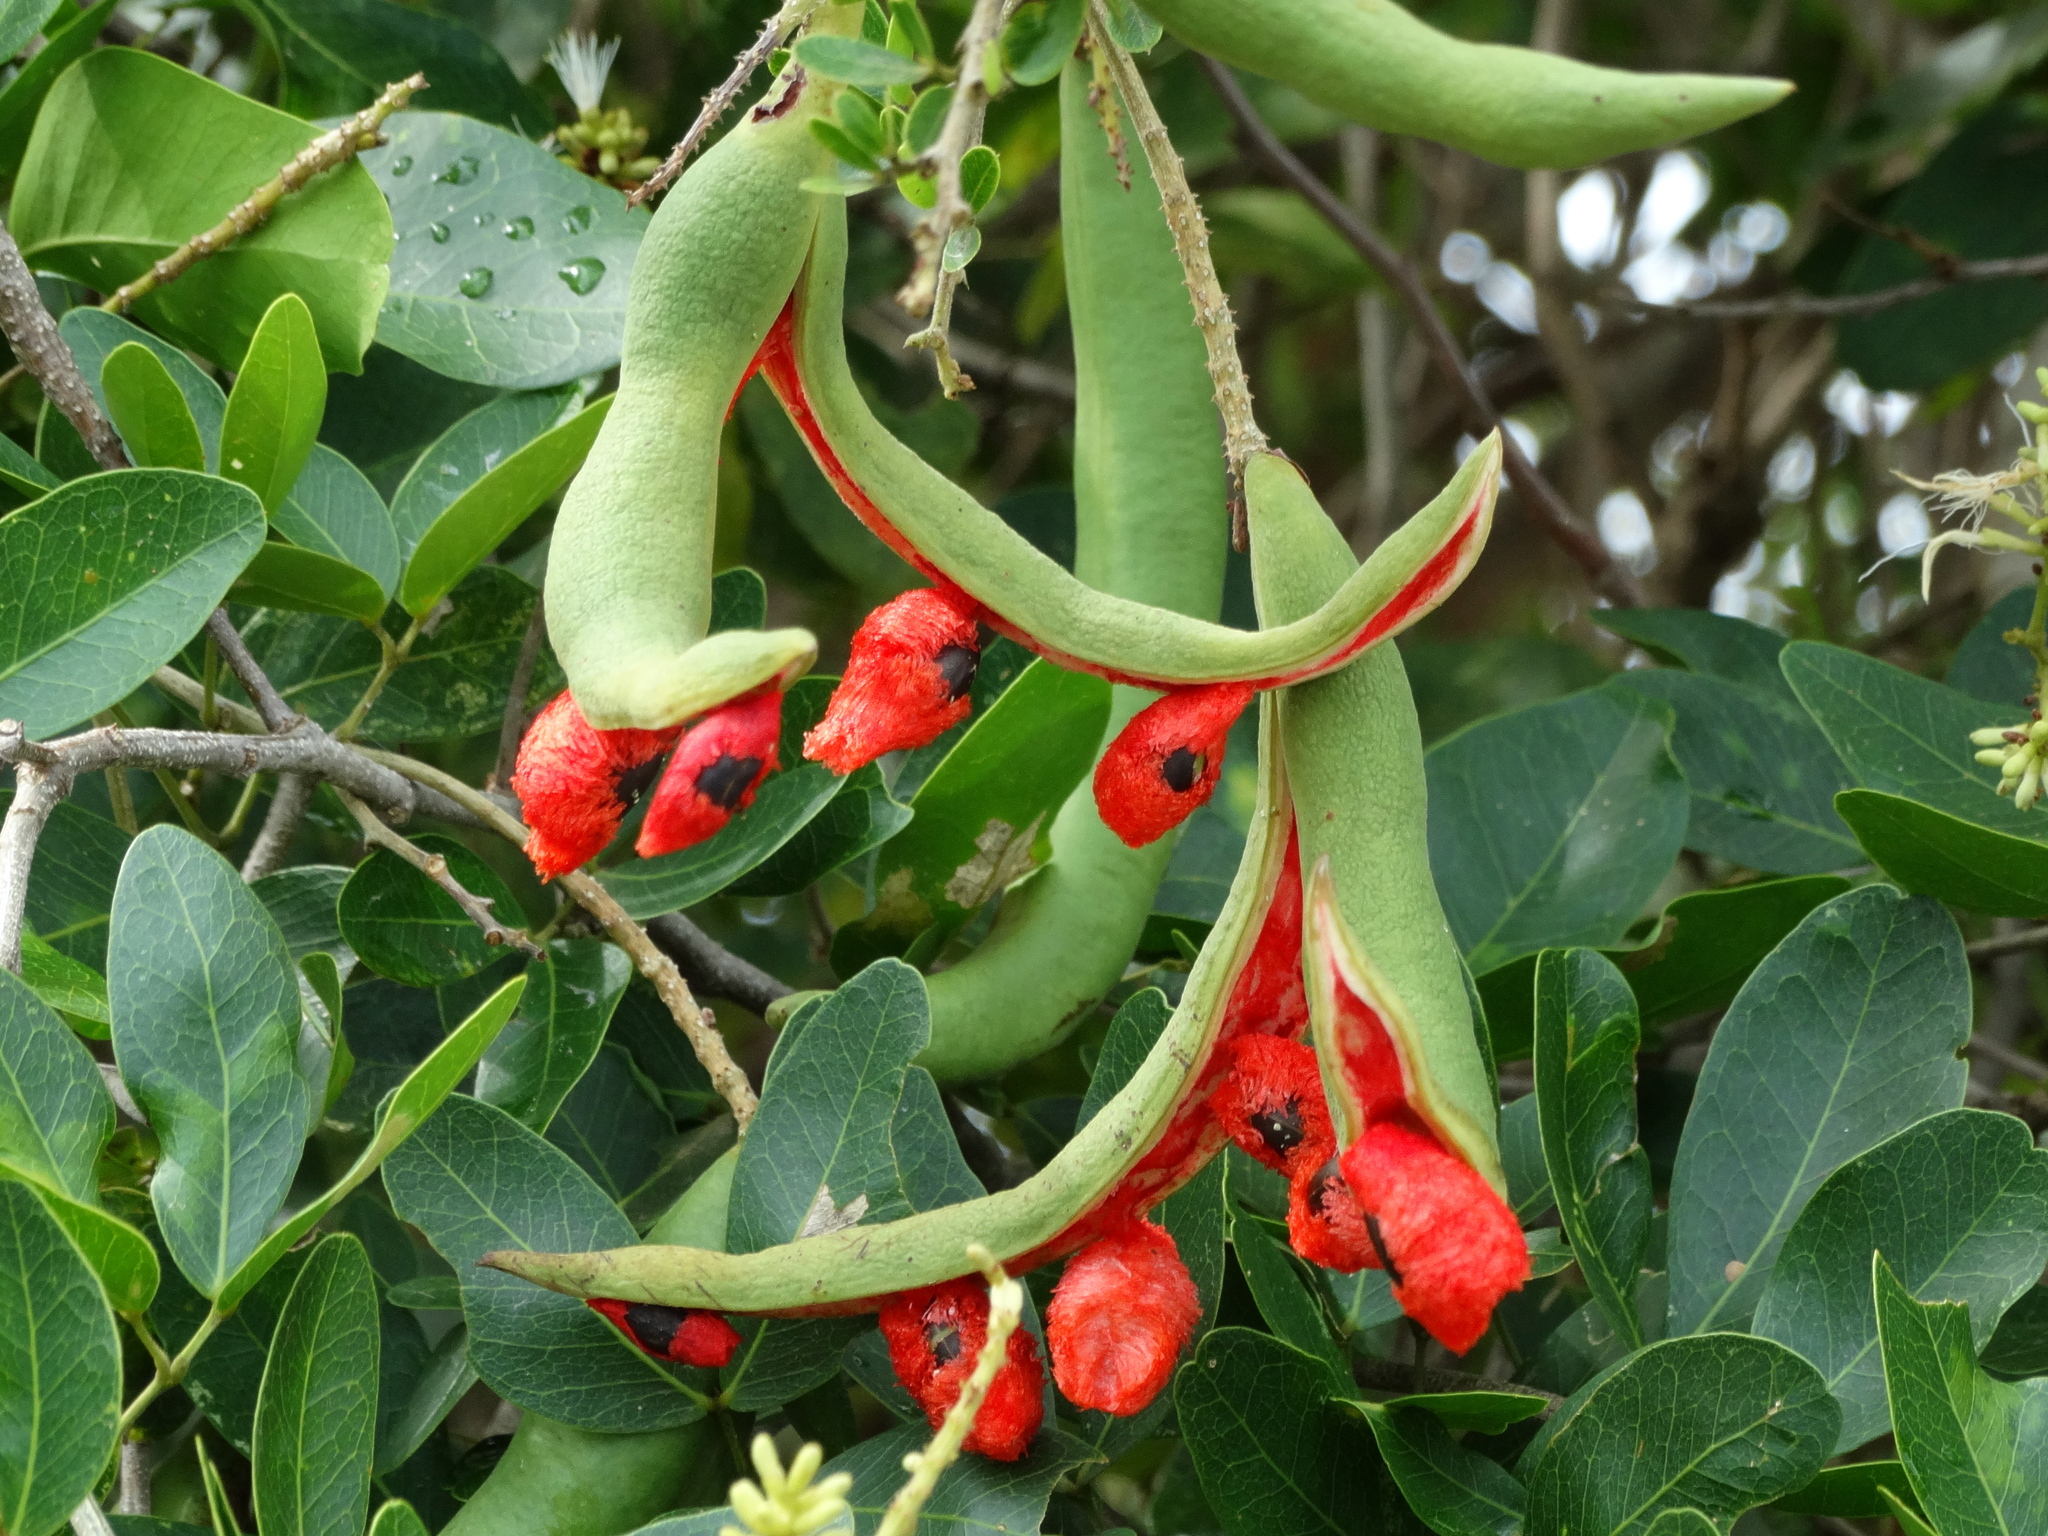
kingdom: Plantae
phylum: Tracheophyta
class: Magnoliopsida
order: Fabales
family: Fabaceae
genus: Pithecellobium
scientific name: Pithecellobium lanceolatum
